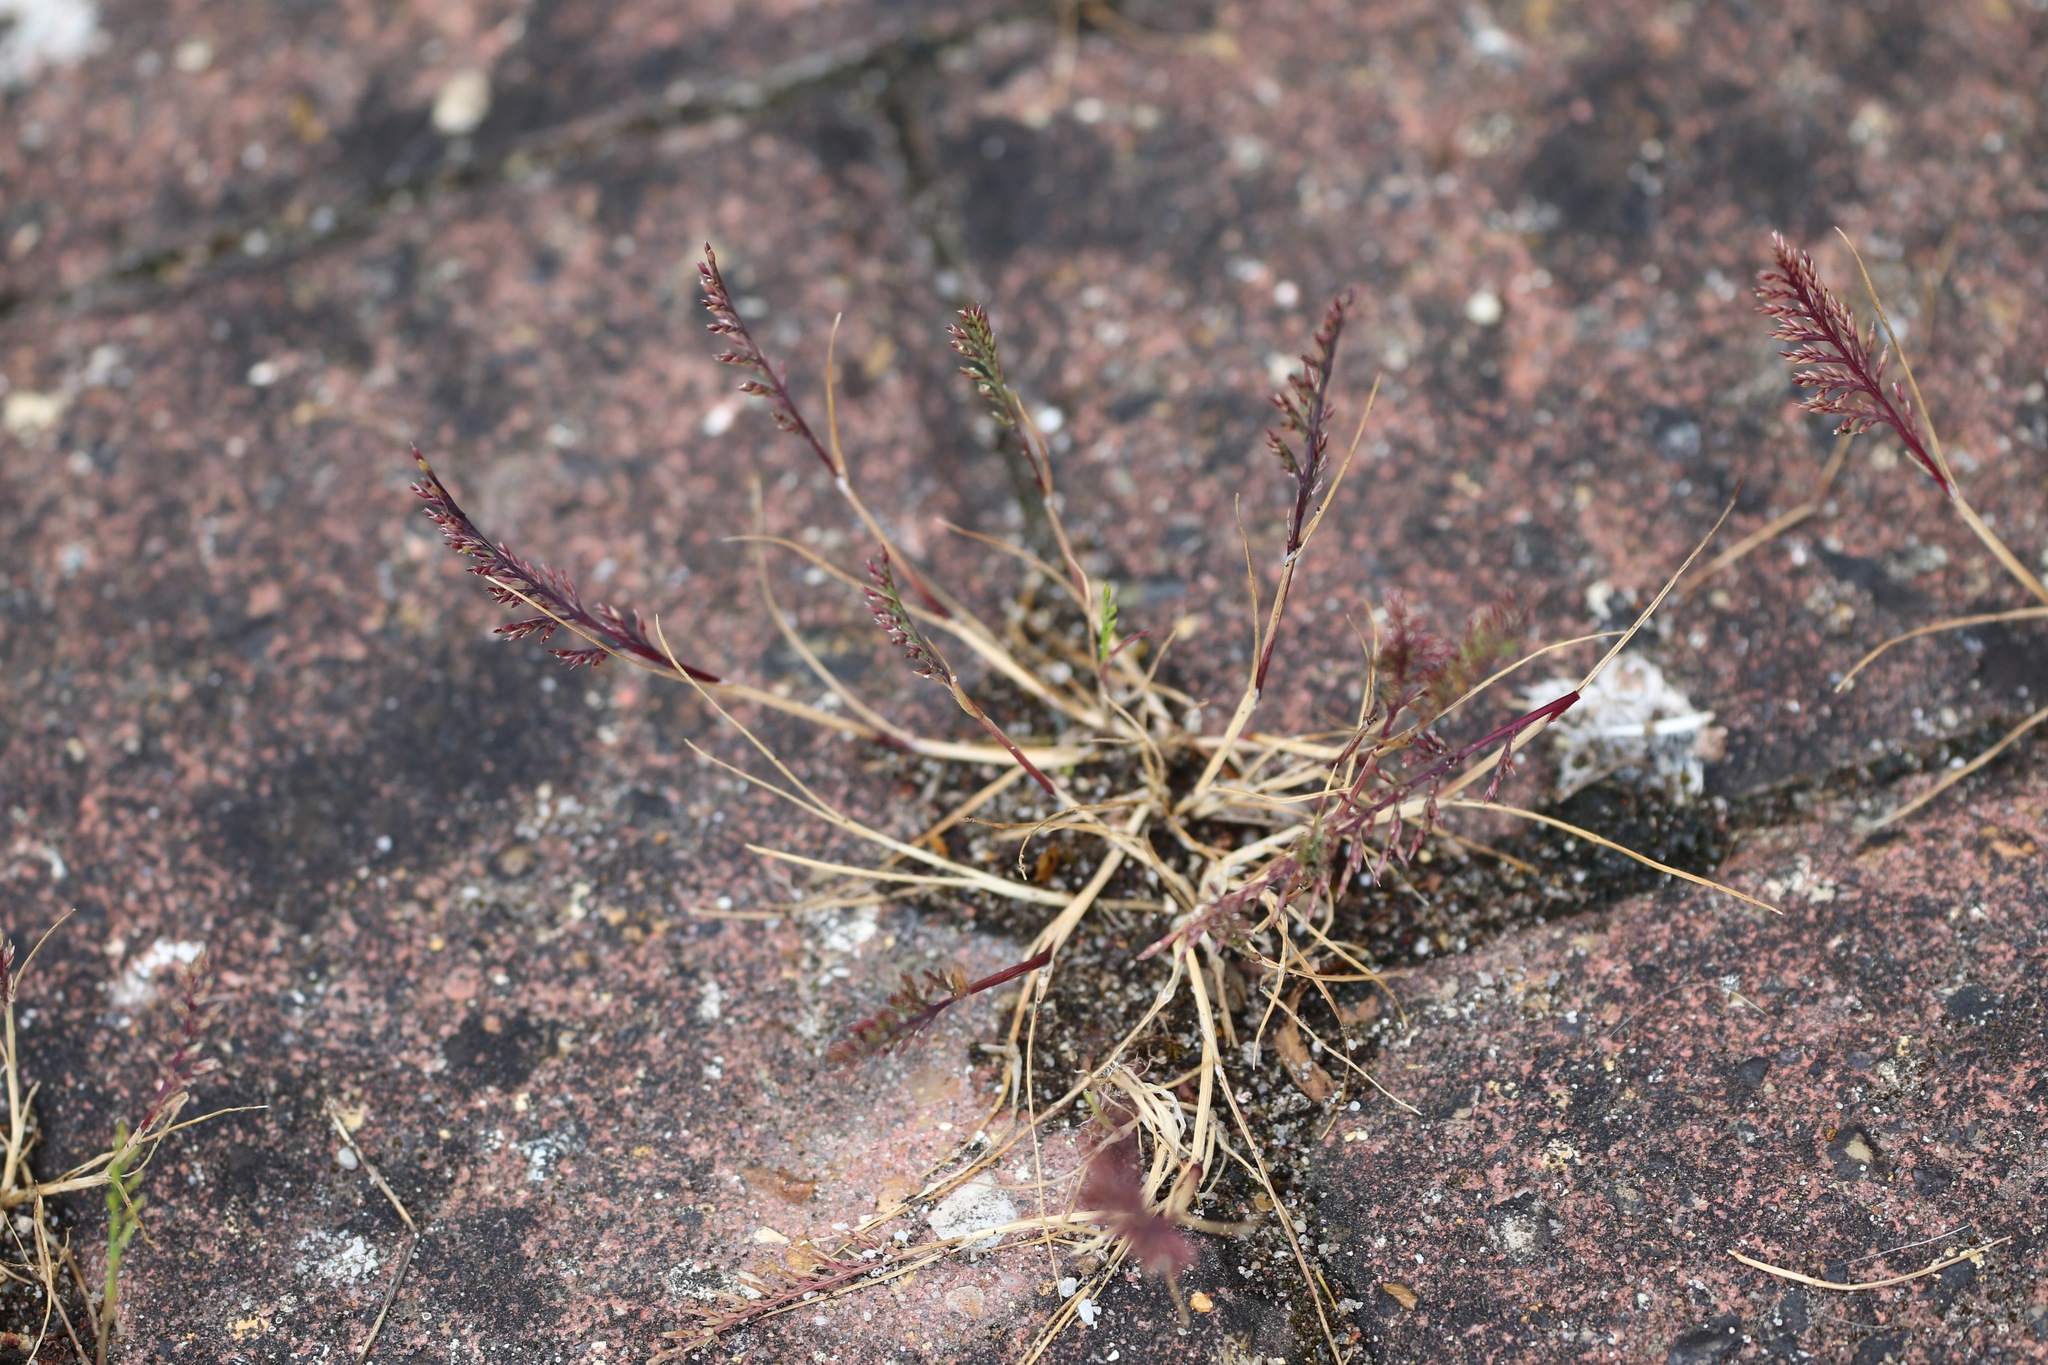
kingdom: Plantae
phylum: Tracheophyta
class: Liliopsida
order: Poales
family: Poaceae
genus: Catapodium
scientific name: Catapodium rigidum
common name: Fern-grass
